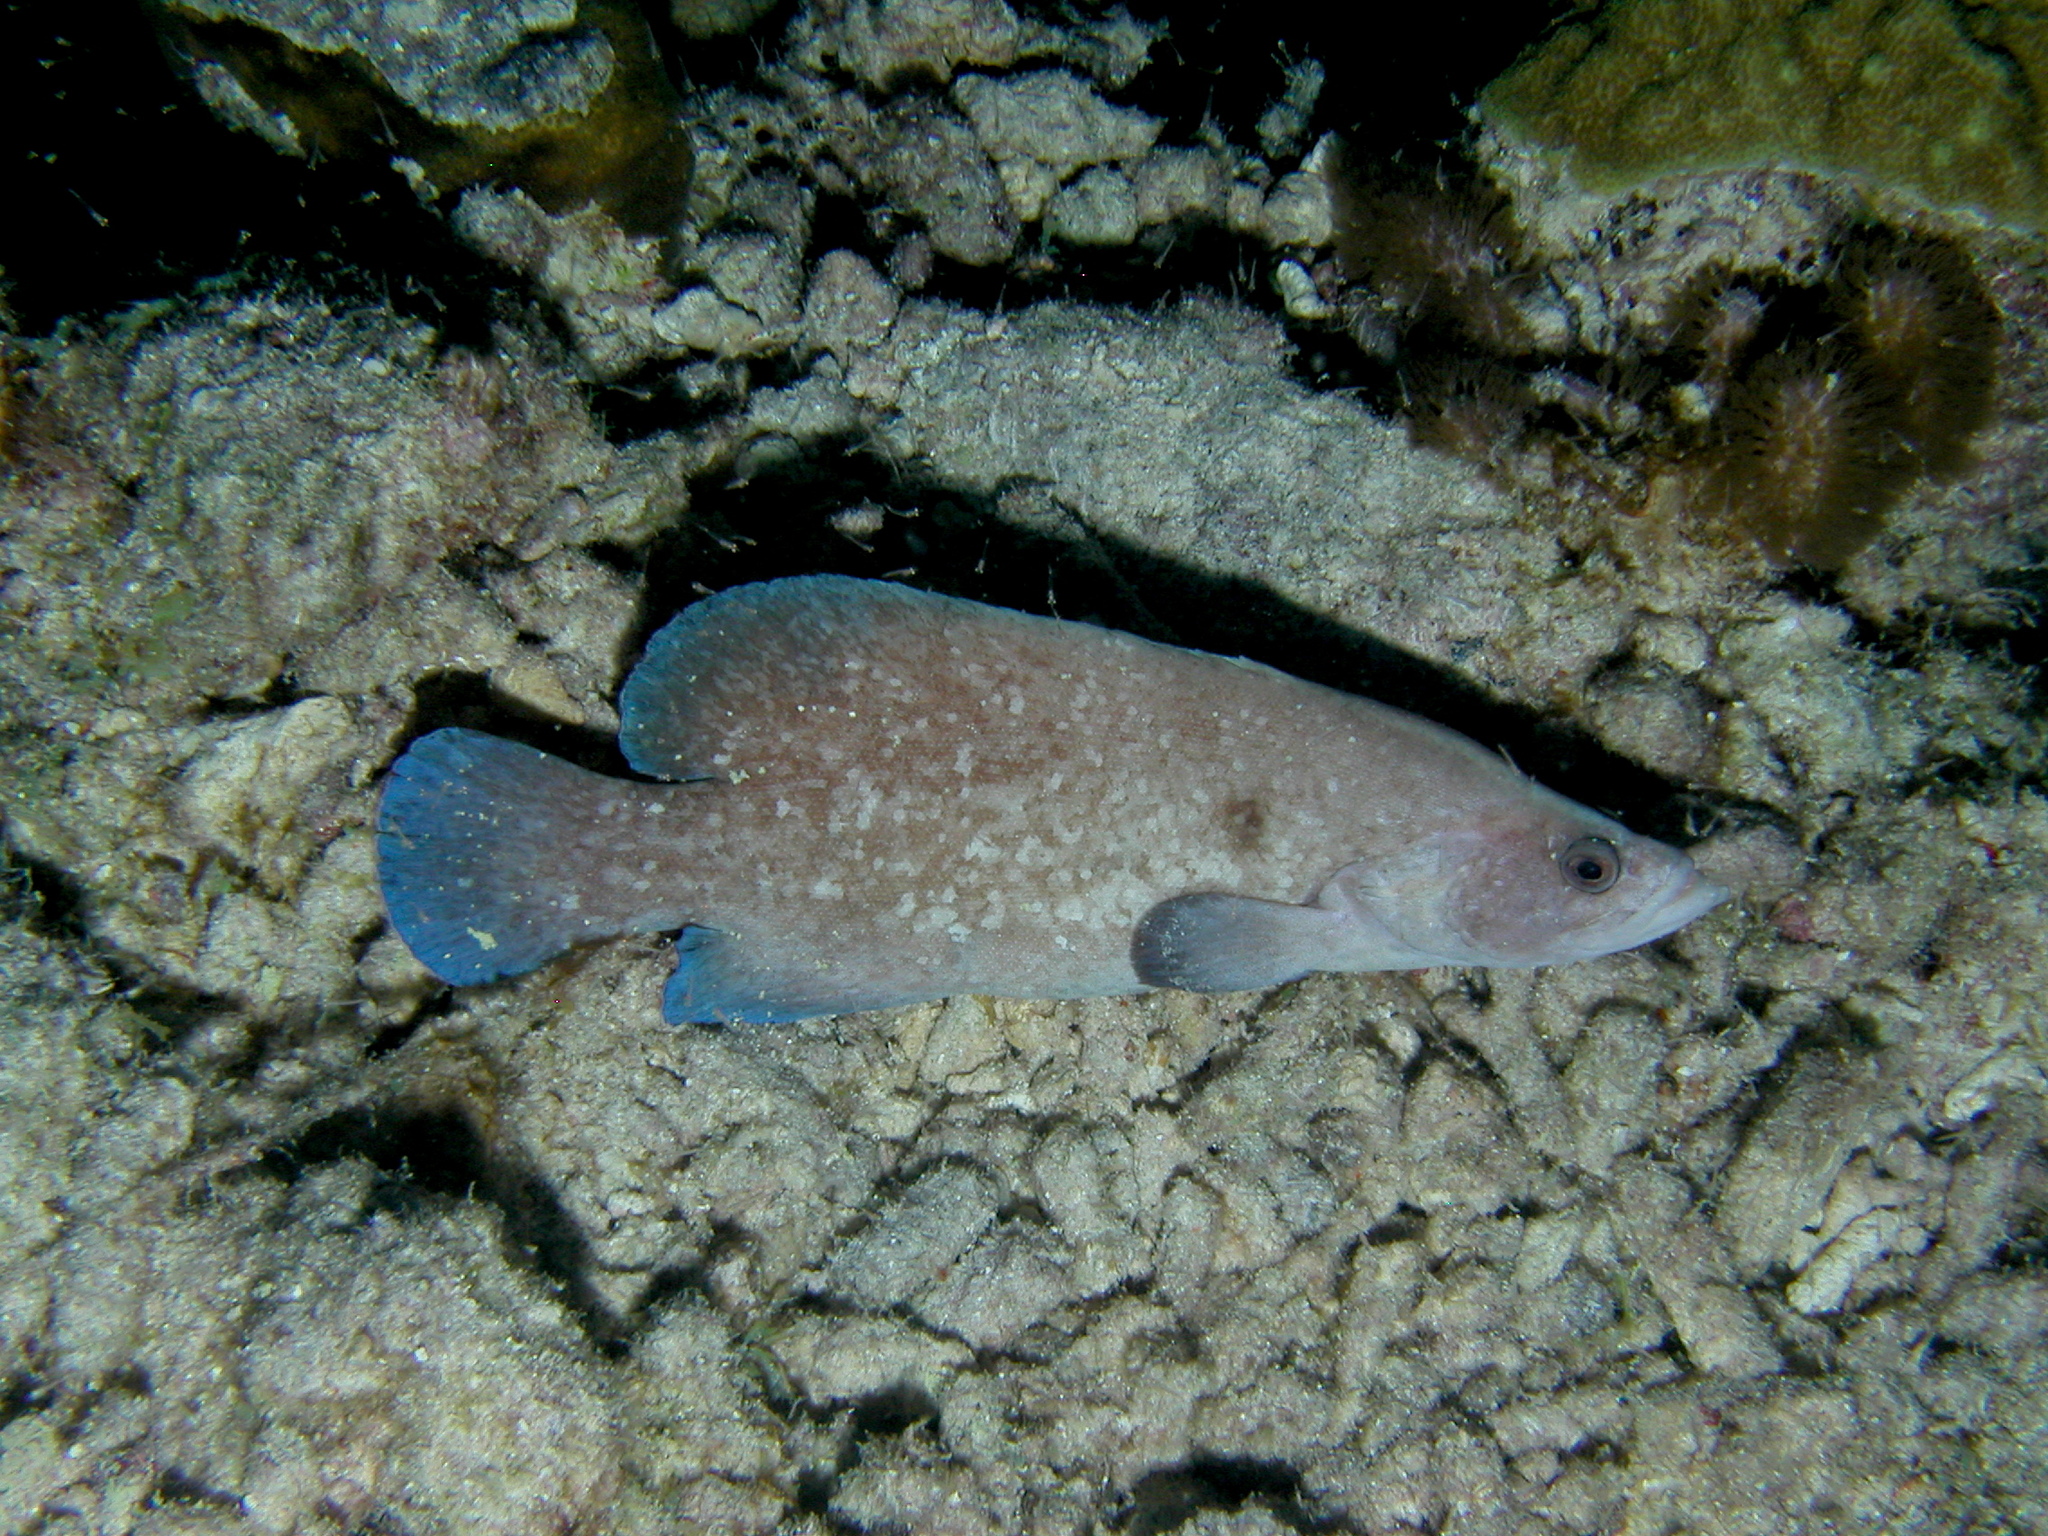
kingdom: Animalia
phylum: Chordata
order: Perciformes
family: Serranidae
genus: Rypticus
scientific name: Rypticus saponaceus
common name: Soapfish
